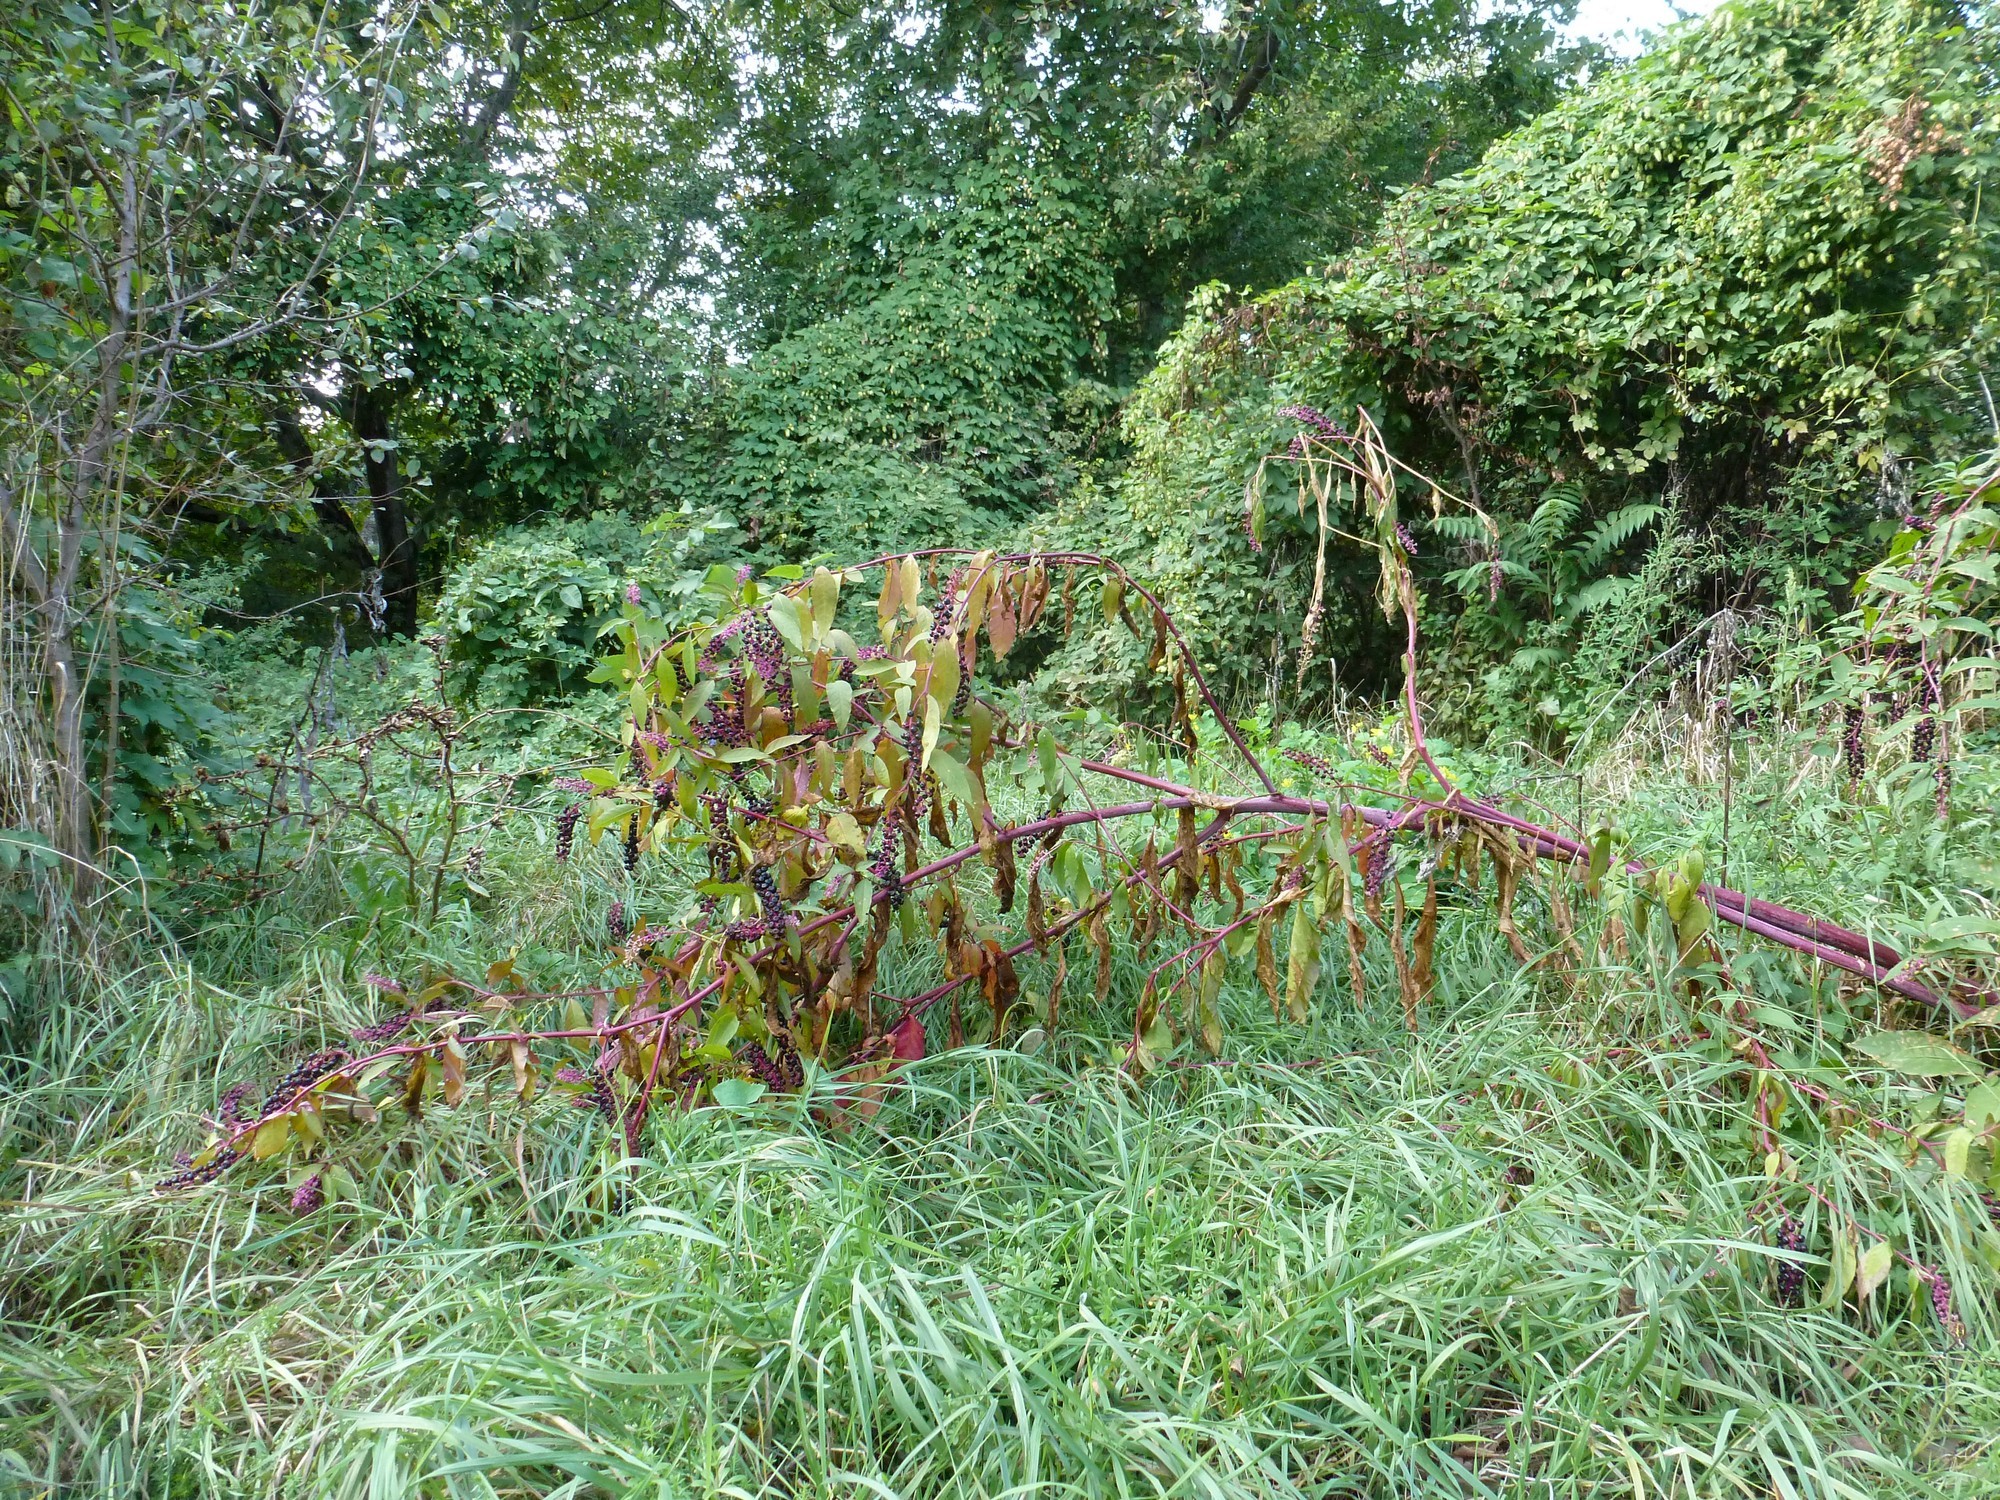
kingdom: Plantae
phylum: Tracheophyta
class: Magnoliopsida
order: Caryophyllales
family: Phytolaccaceae
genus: Phytolacca
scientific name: Phytolacca americana
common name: American pokeweed
